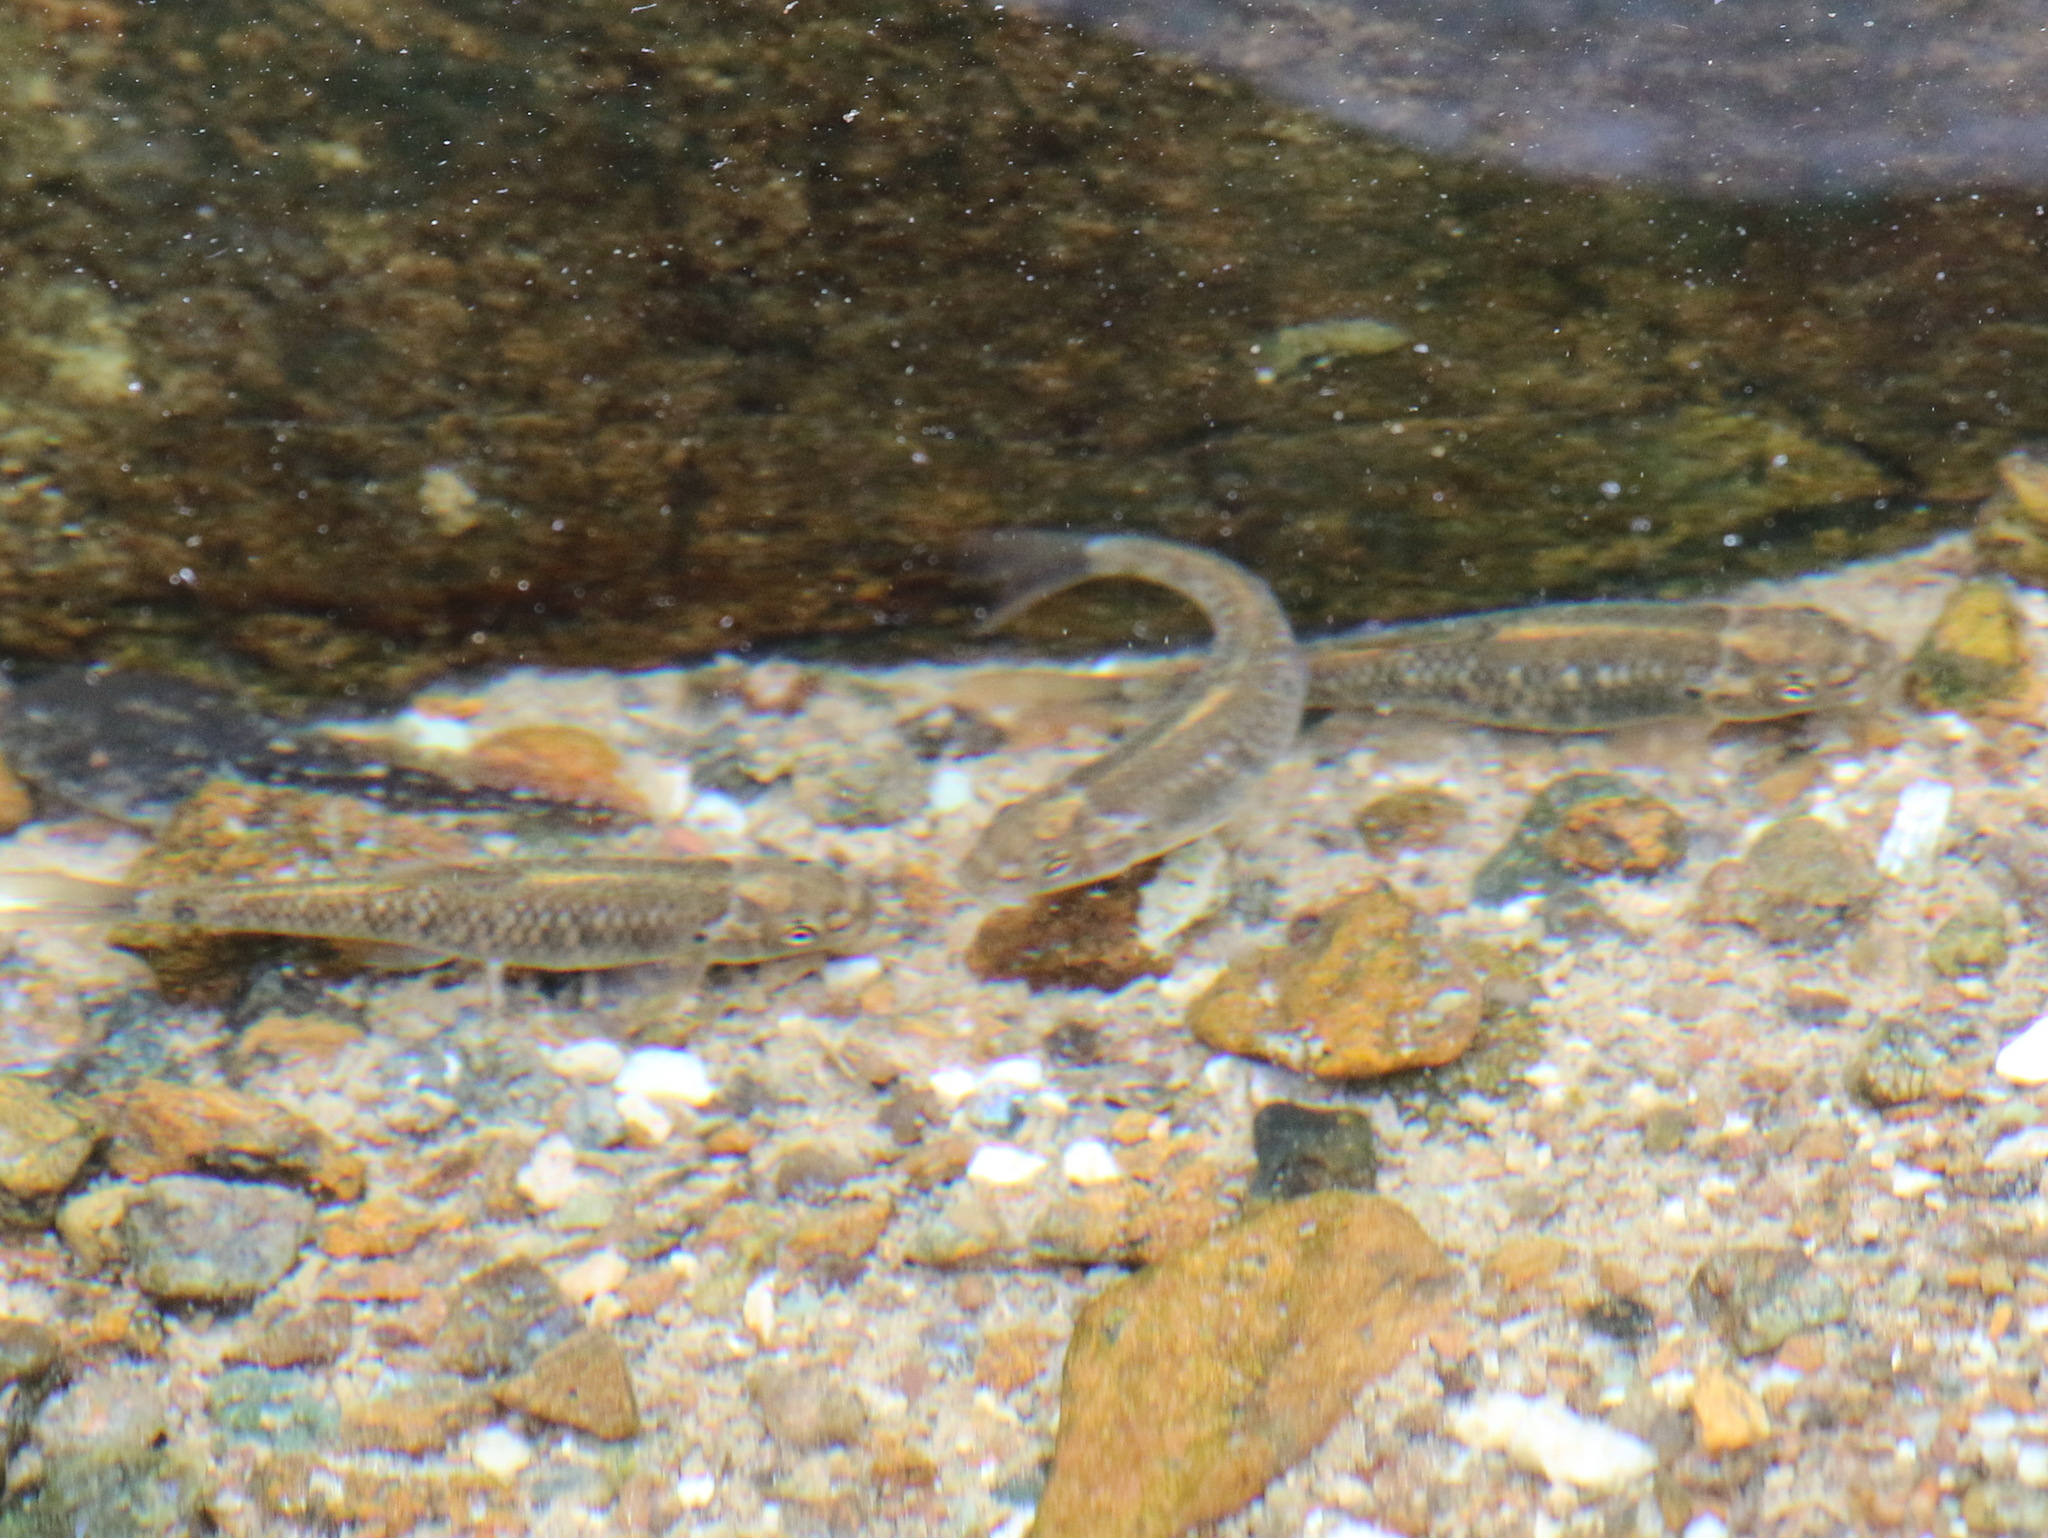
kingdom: Animalia
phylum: Chordata
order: Cypriniformes
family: Cyprinidae
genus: Garra
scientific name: Garra barreimiae
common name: Oman garra
